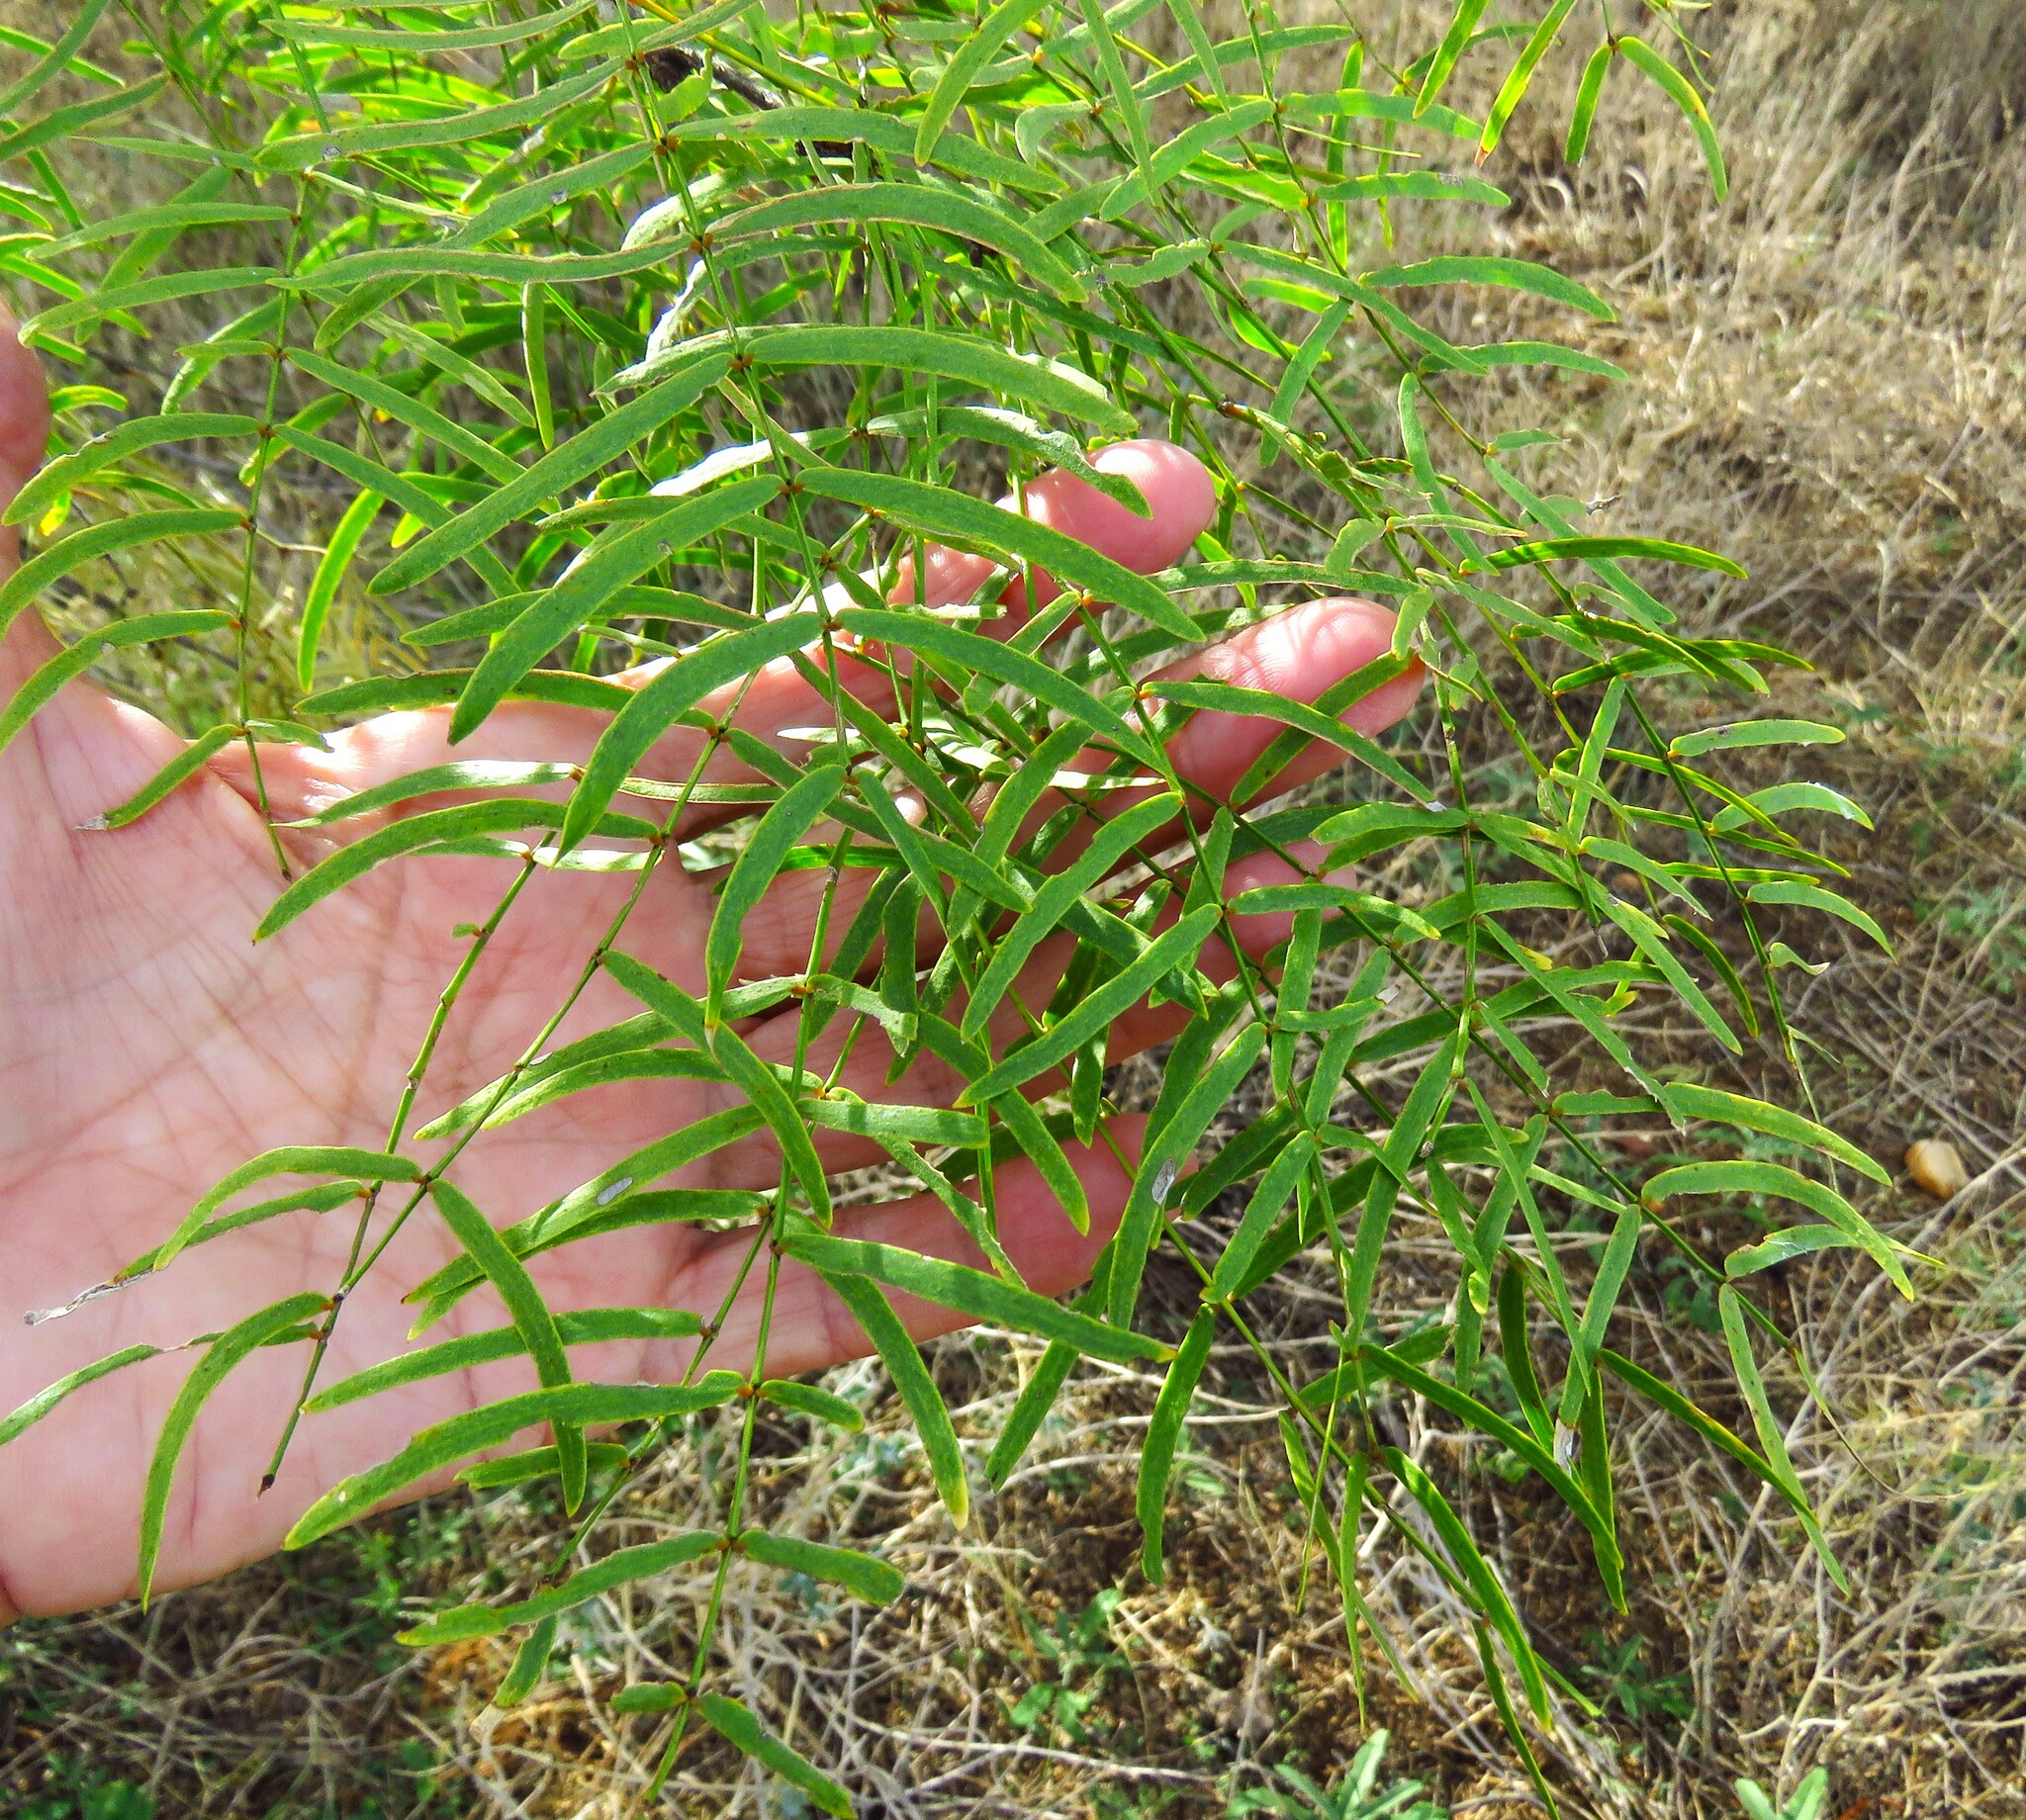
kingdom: Plantae
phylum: Tracheophyta
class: Magnoliopsida
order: Fabales
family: Fabaceae
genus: Prosopis
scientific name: Prosopis glandulosa
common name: Honey mesquite
